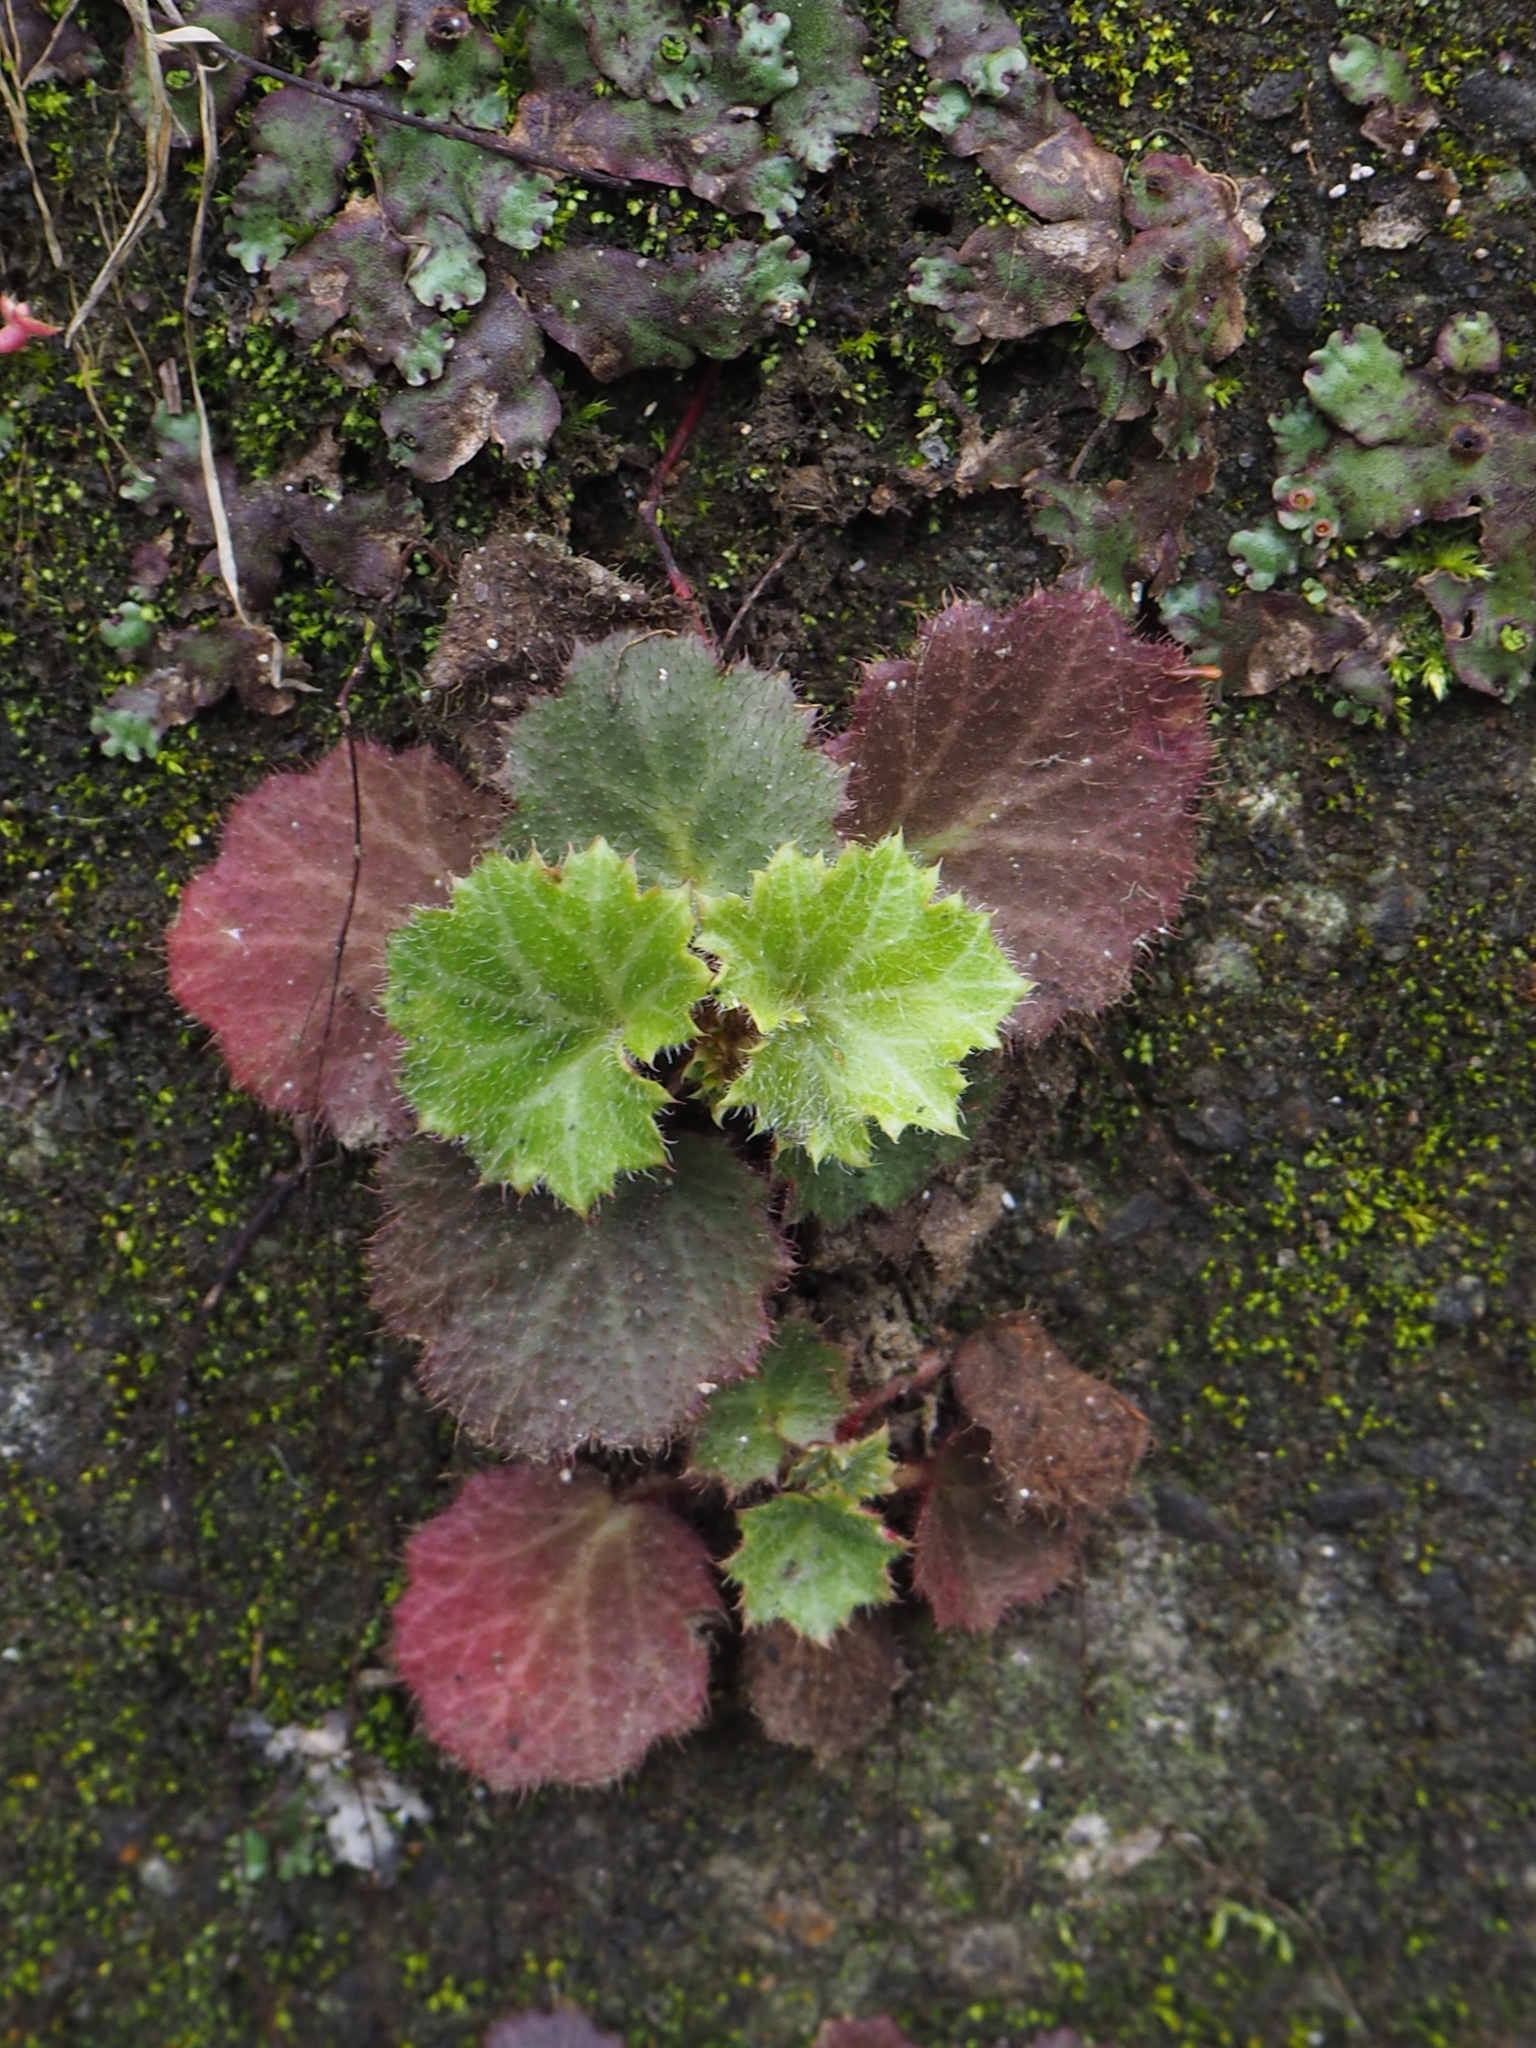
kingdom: Plantae
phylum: Tracheophyta
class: Magnoliopsida
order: Saxifragales
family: Saxifragaceae
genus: Saxifraga
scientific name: Saxifraga stolonifera
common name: Creeping saxifrage
